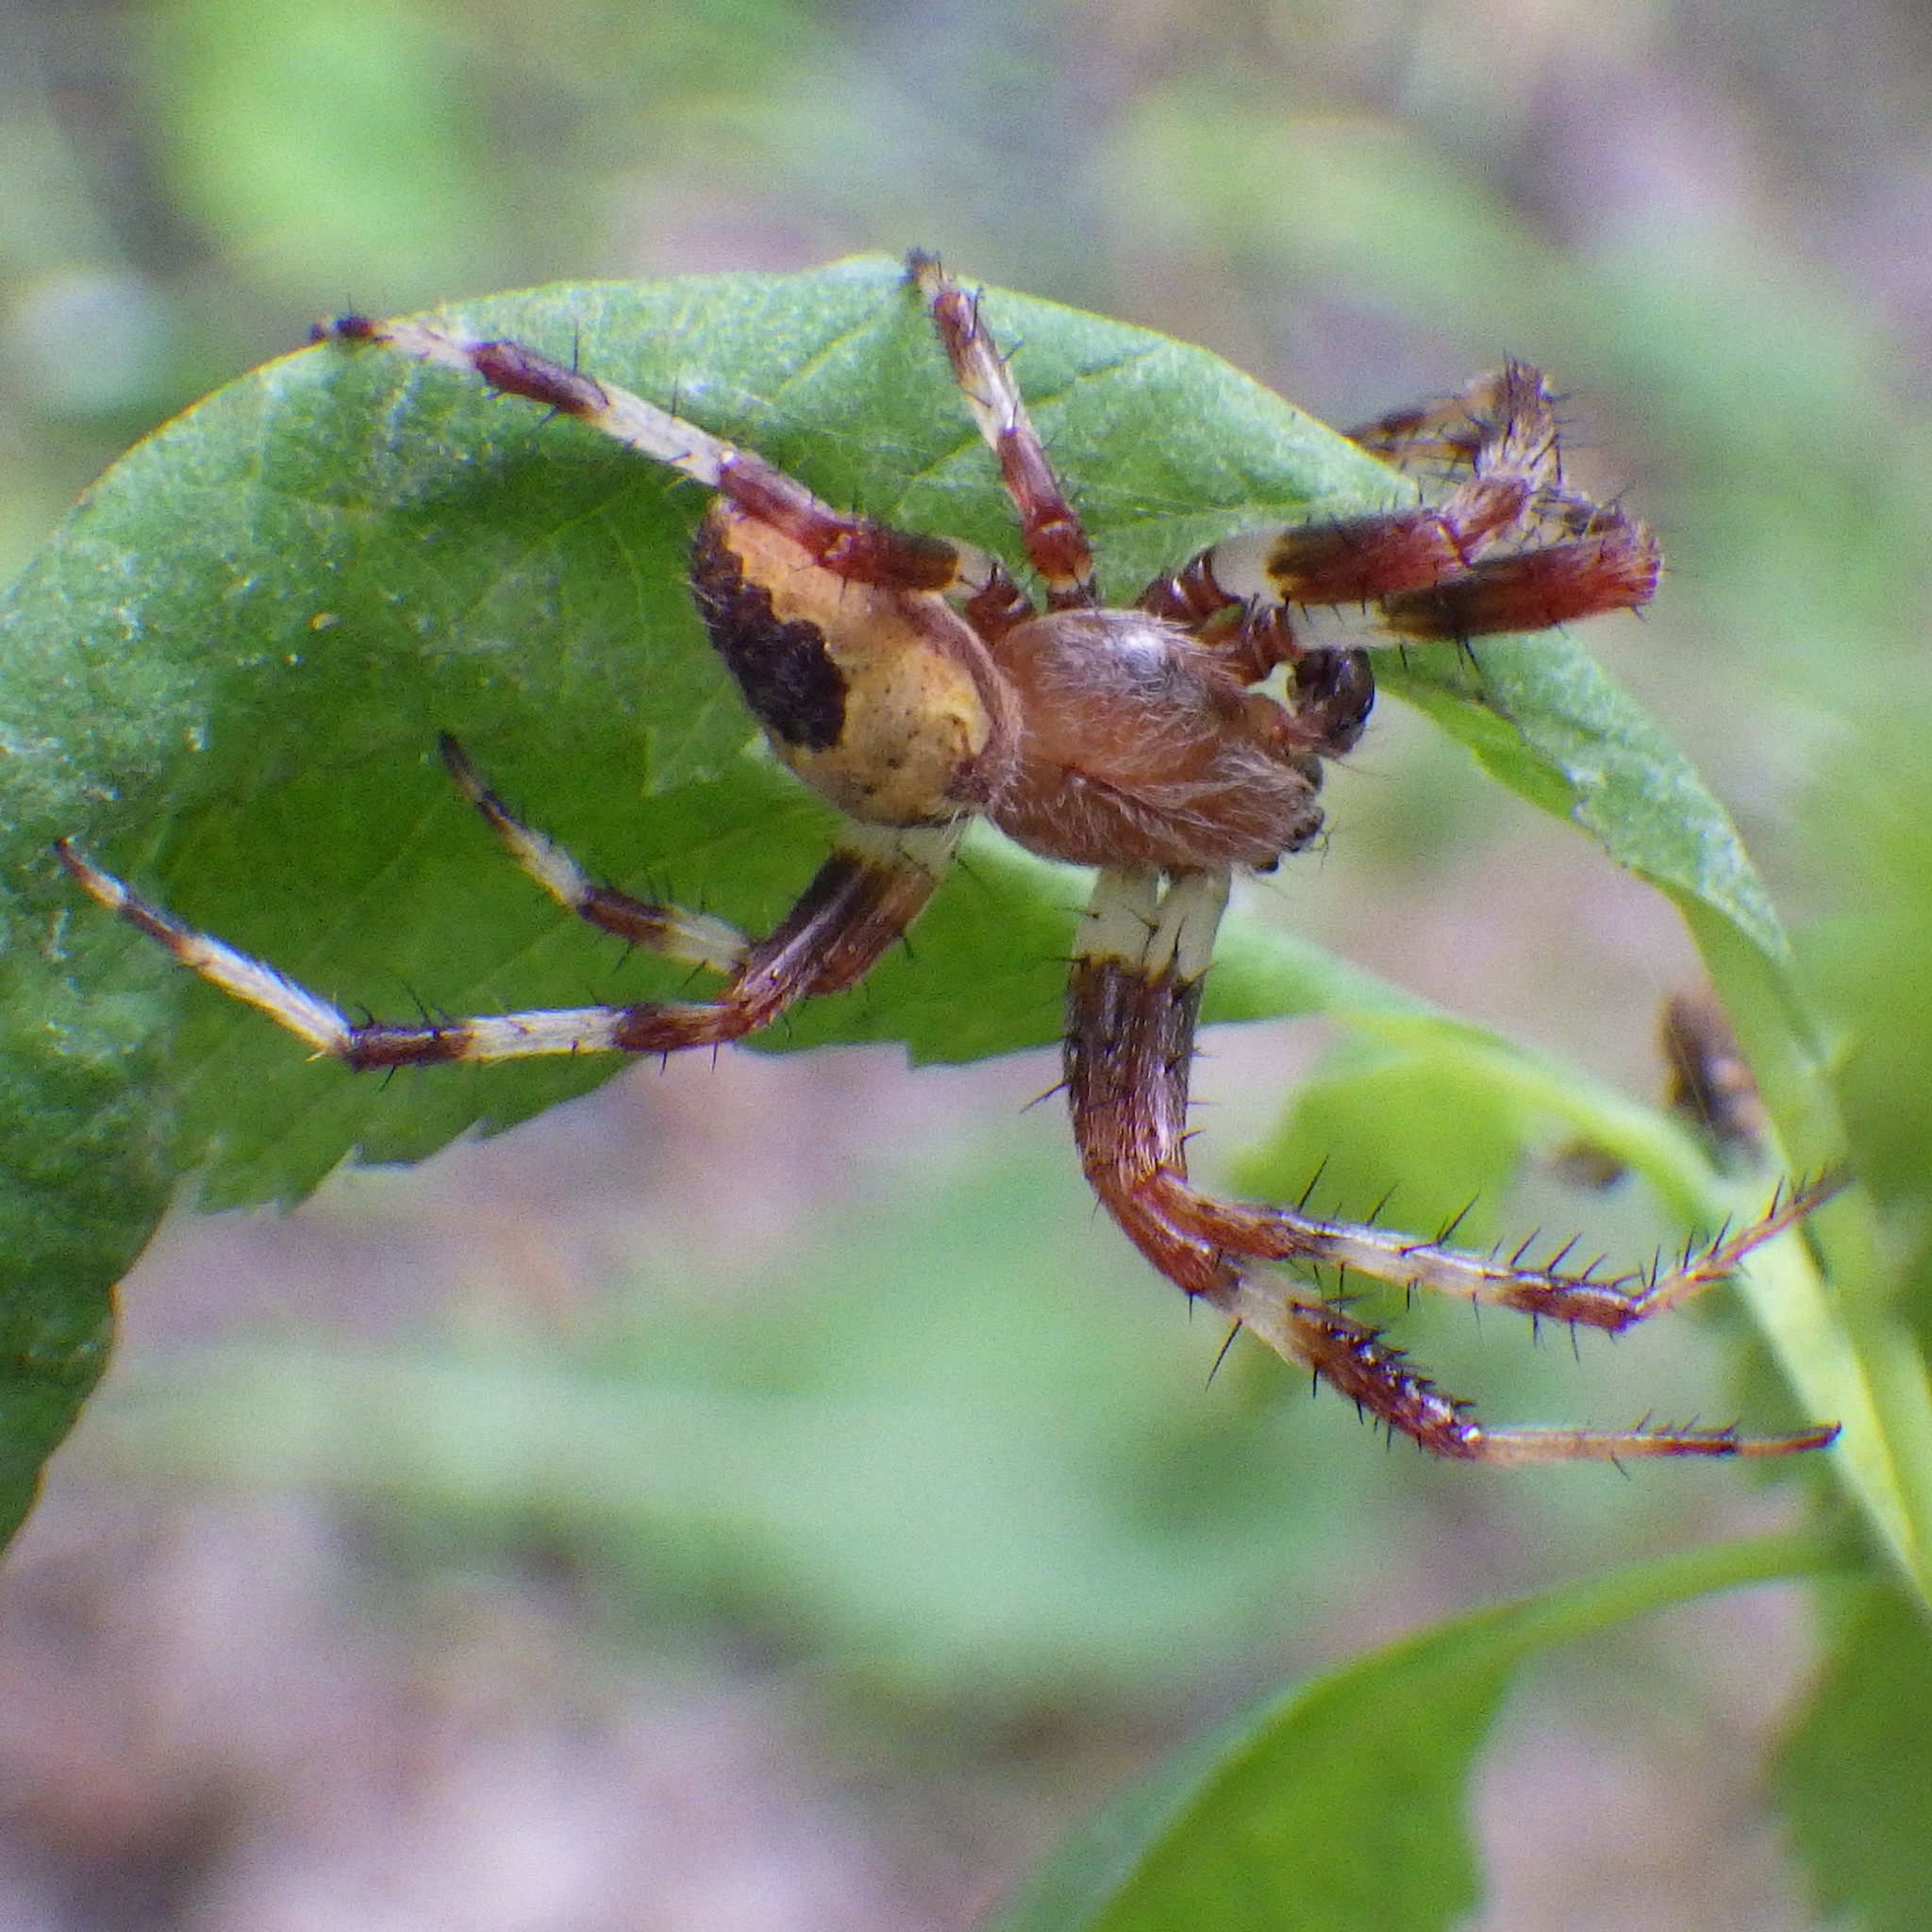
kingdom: Animalia
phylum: Arthropoda
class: Arachnida
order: Araneae
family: Araneidae
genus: Araneus
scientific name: Araneus marmoreus
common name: Marbled orbweaver
